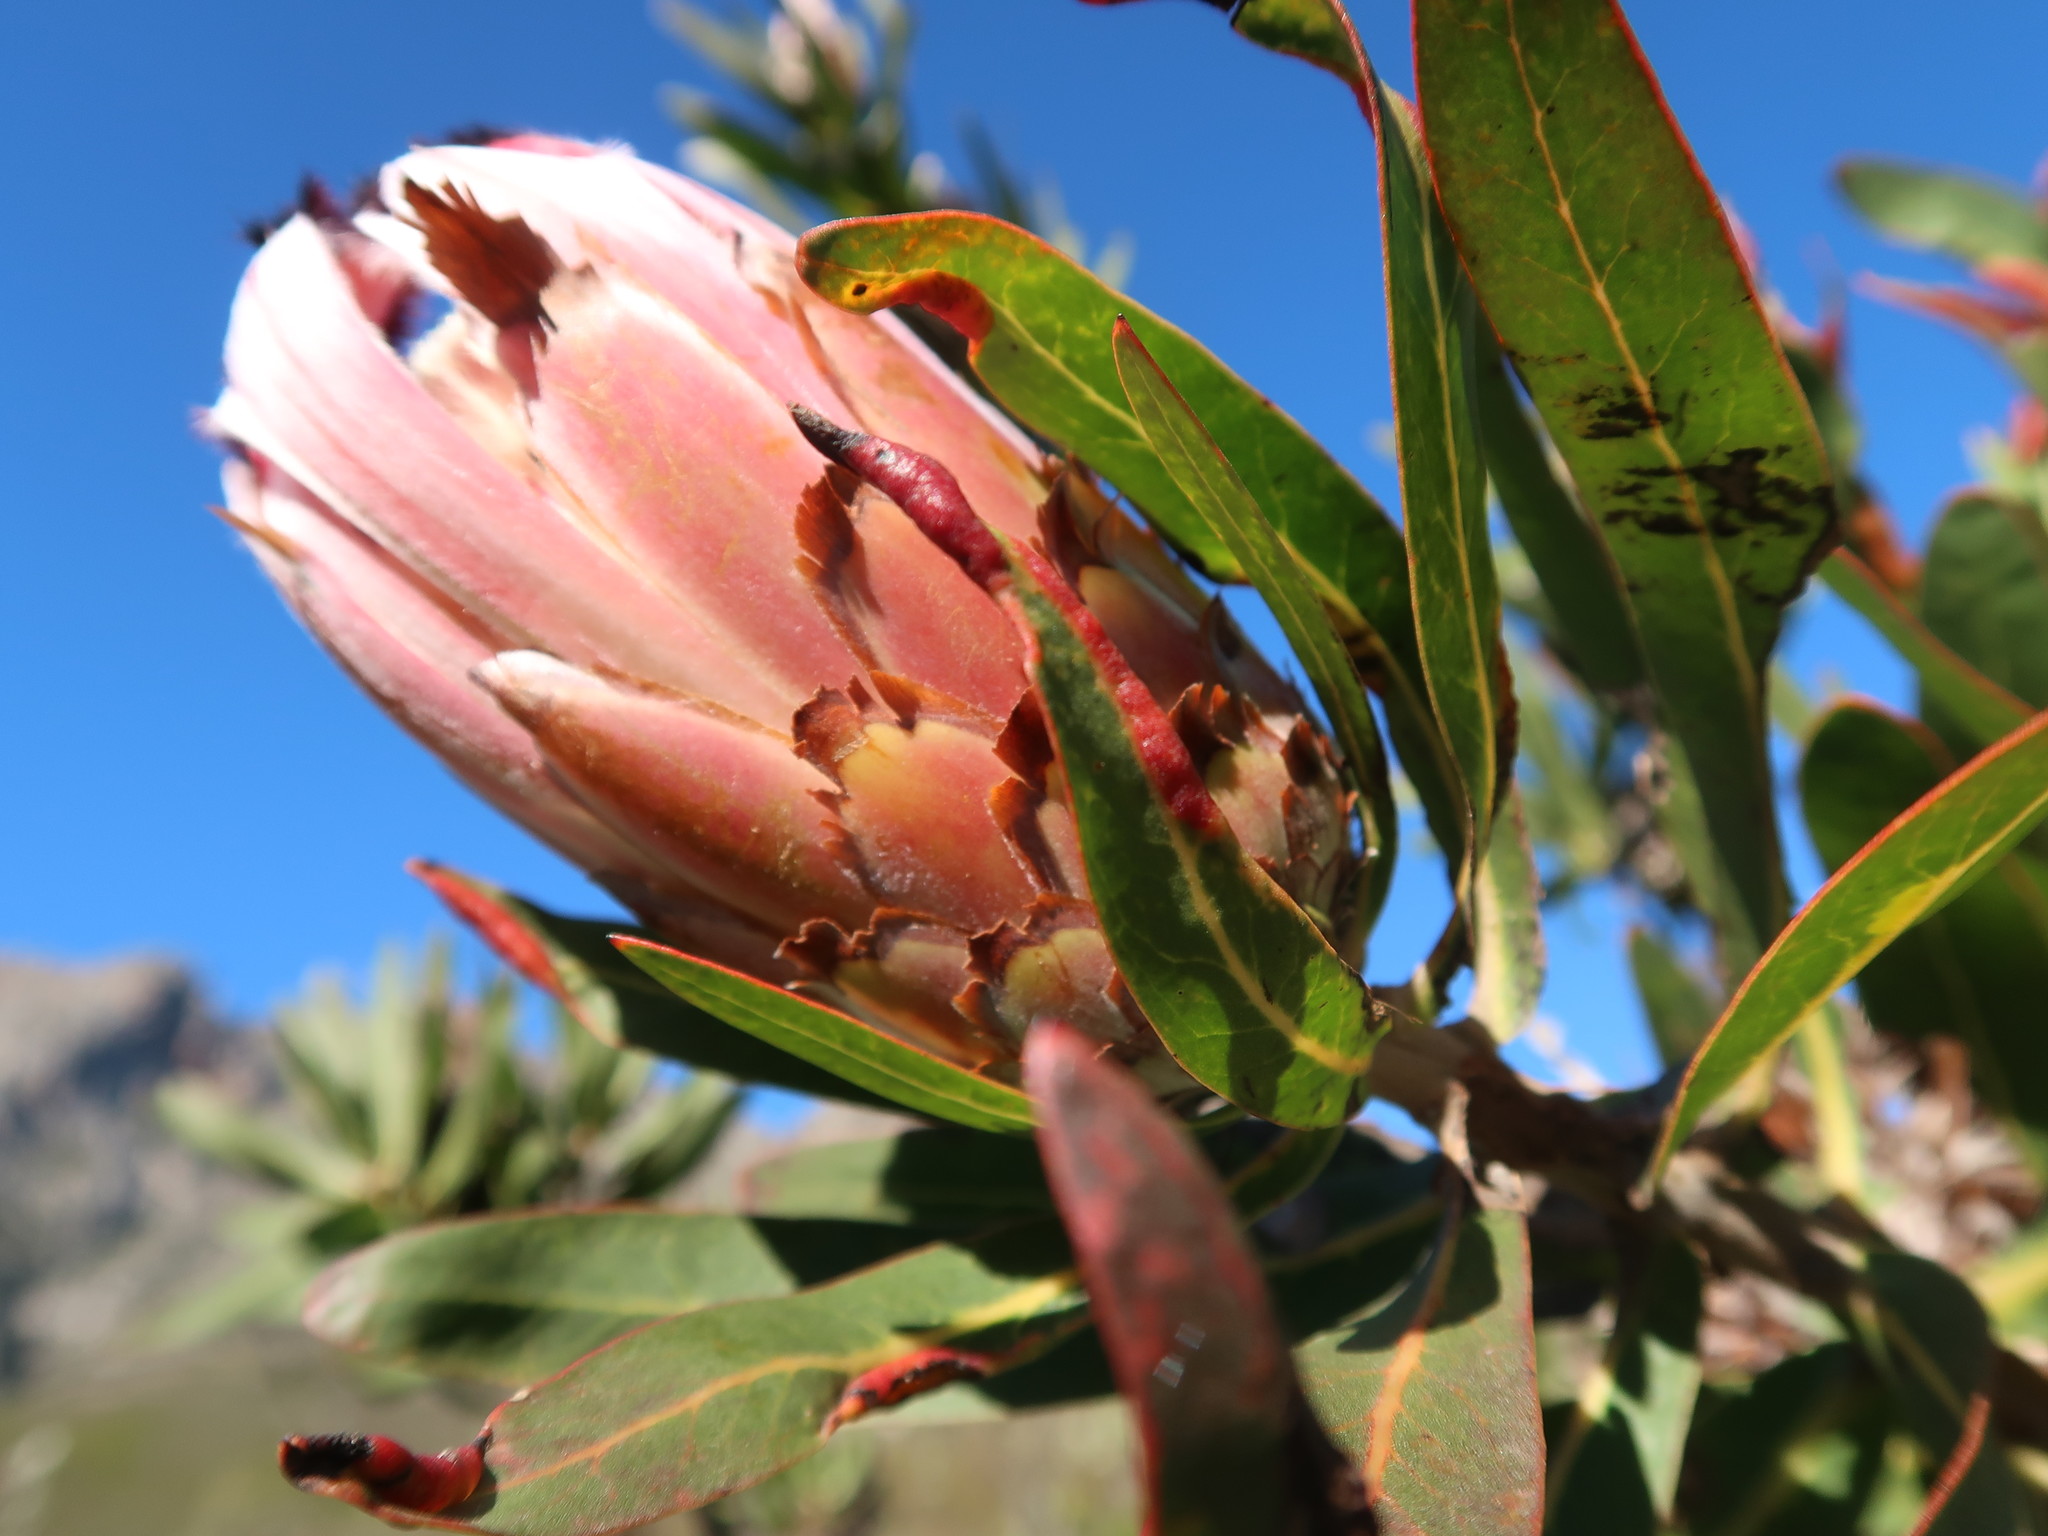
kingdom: Plantae
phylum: Tracheophyta
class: Magnoliopsida
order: Proteales
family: Proteaceae
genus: Protea
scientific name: Protea neriifolia
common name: Blue sugarbush
